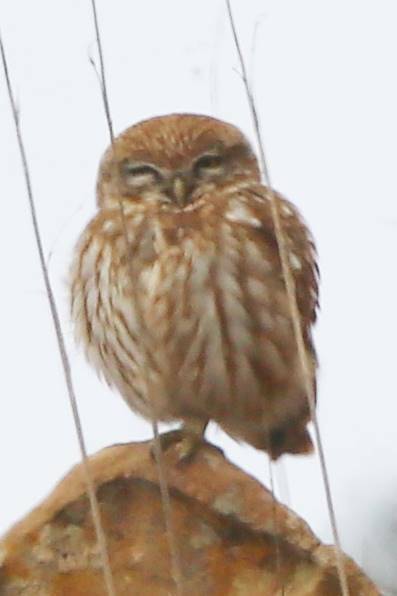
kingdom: Animalia
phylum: Chordata
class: Aves
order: Strigiformes
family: Strigidae
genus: Athene
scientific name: Athene noctua
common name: Little owl
